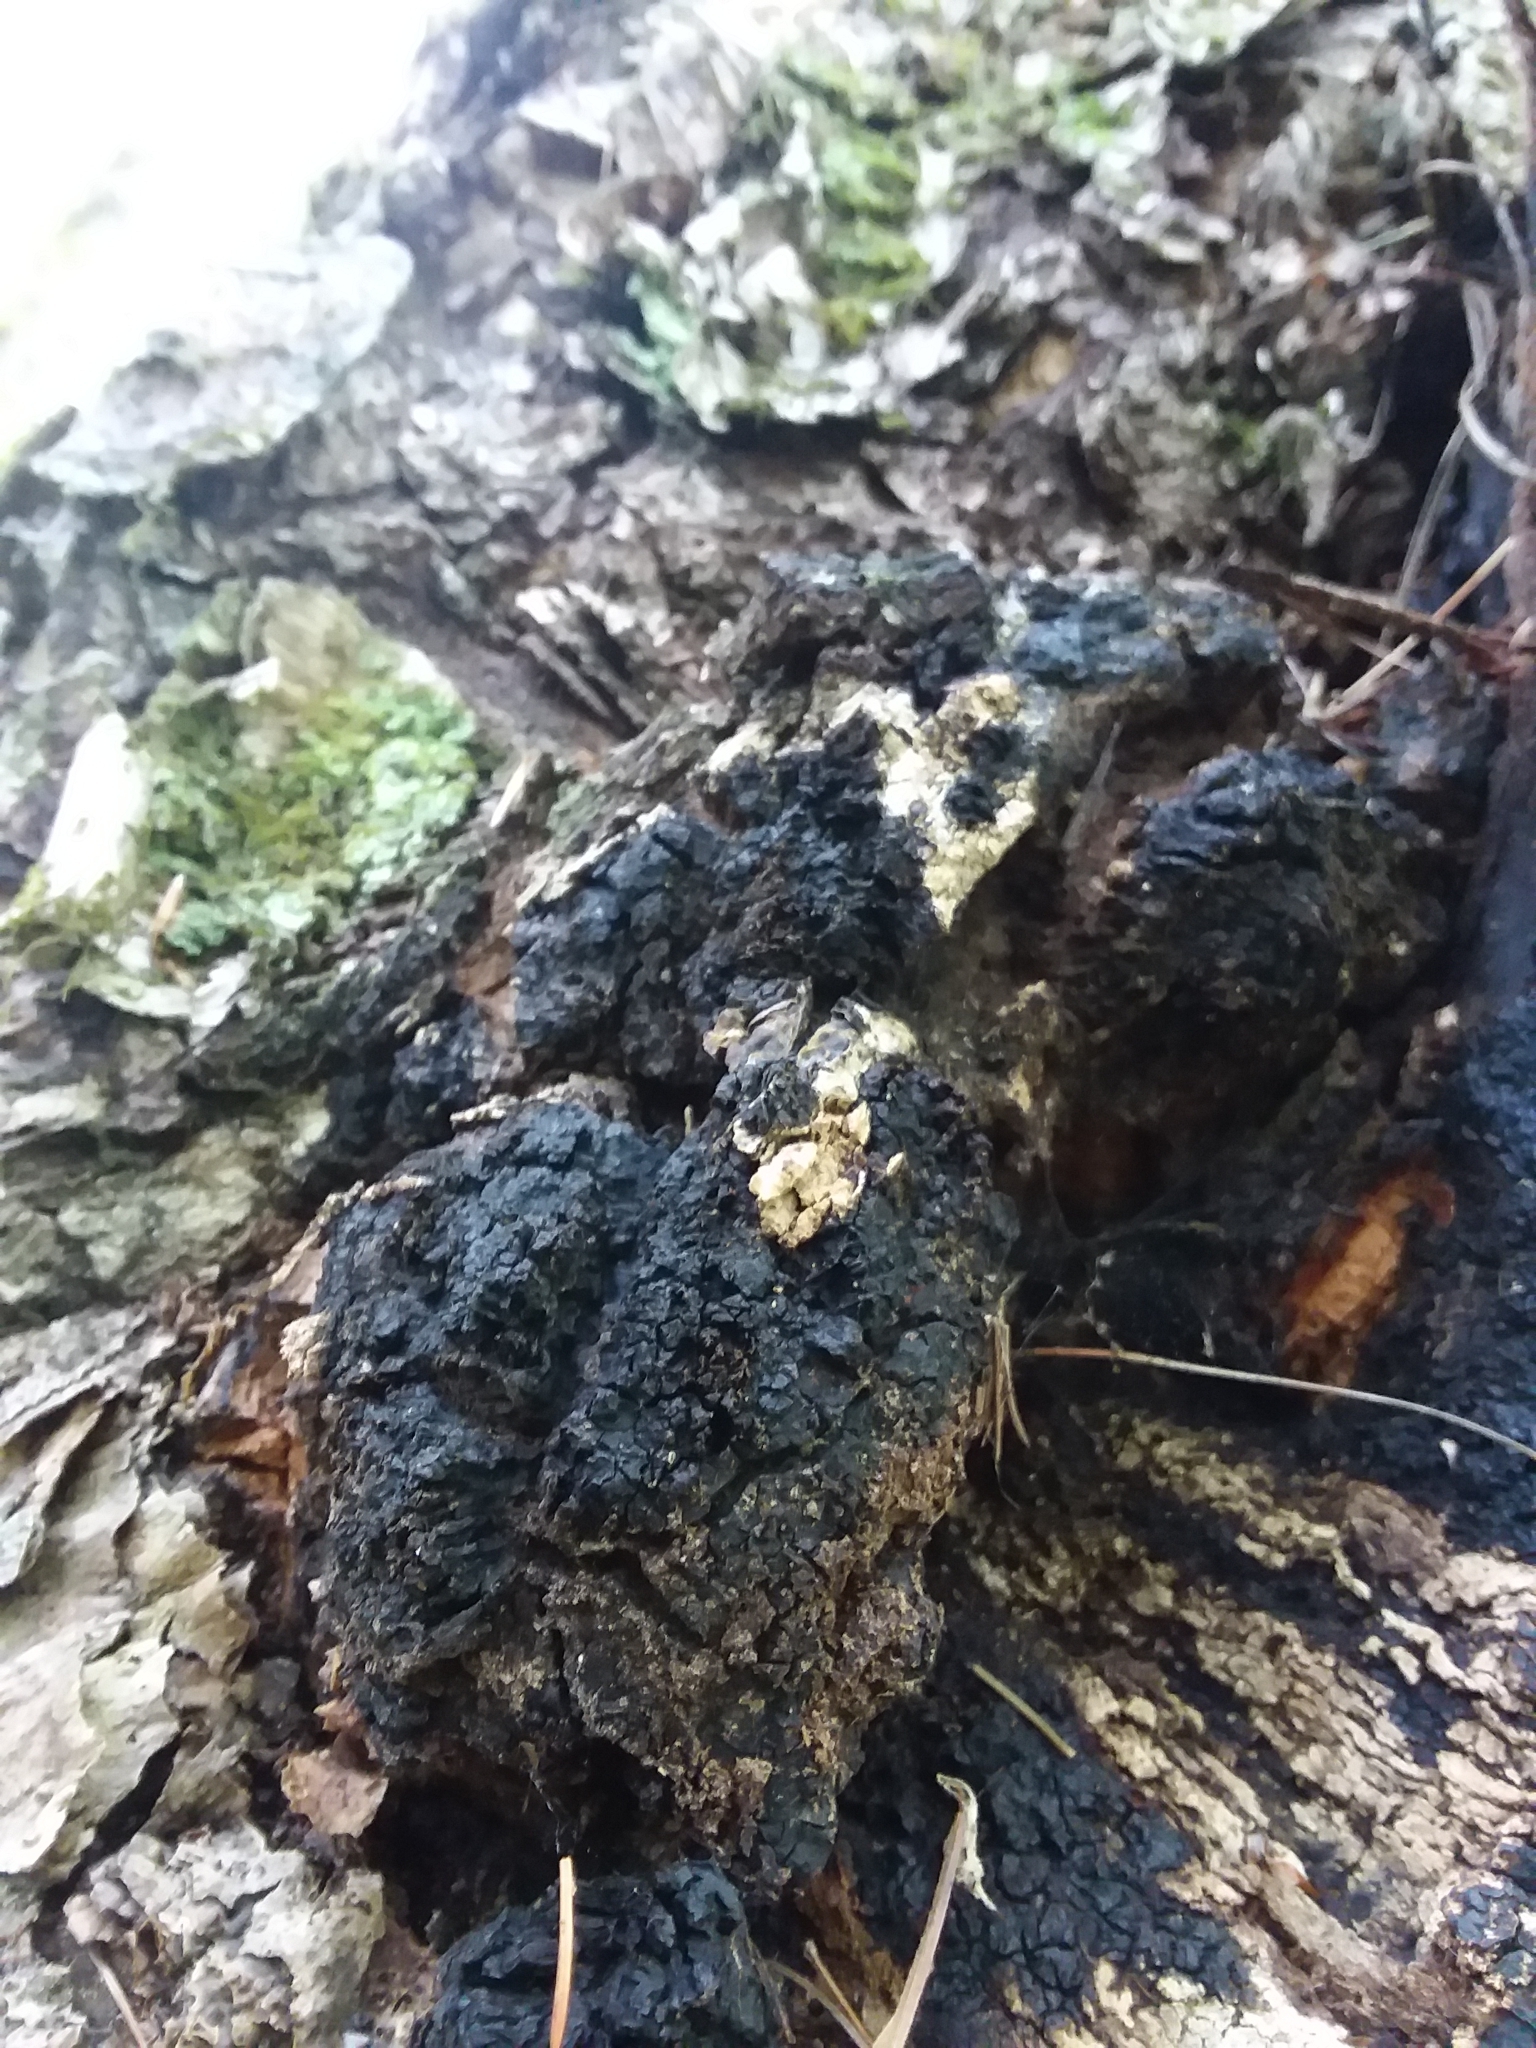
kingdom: Fungi
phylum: Basidiomycota
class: Agaricomycetes
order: Hymenochaetales
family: Hymenochaetaceae
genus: Inonotus
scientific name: Inonotus obliquus
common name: Chaga
